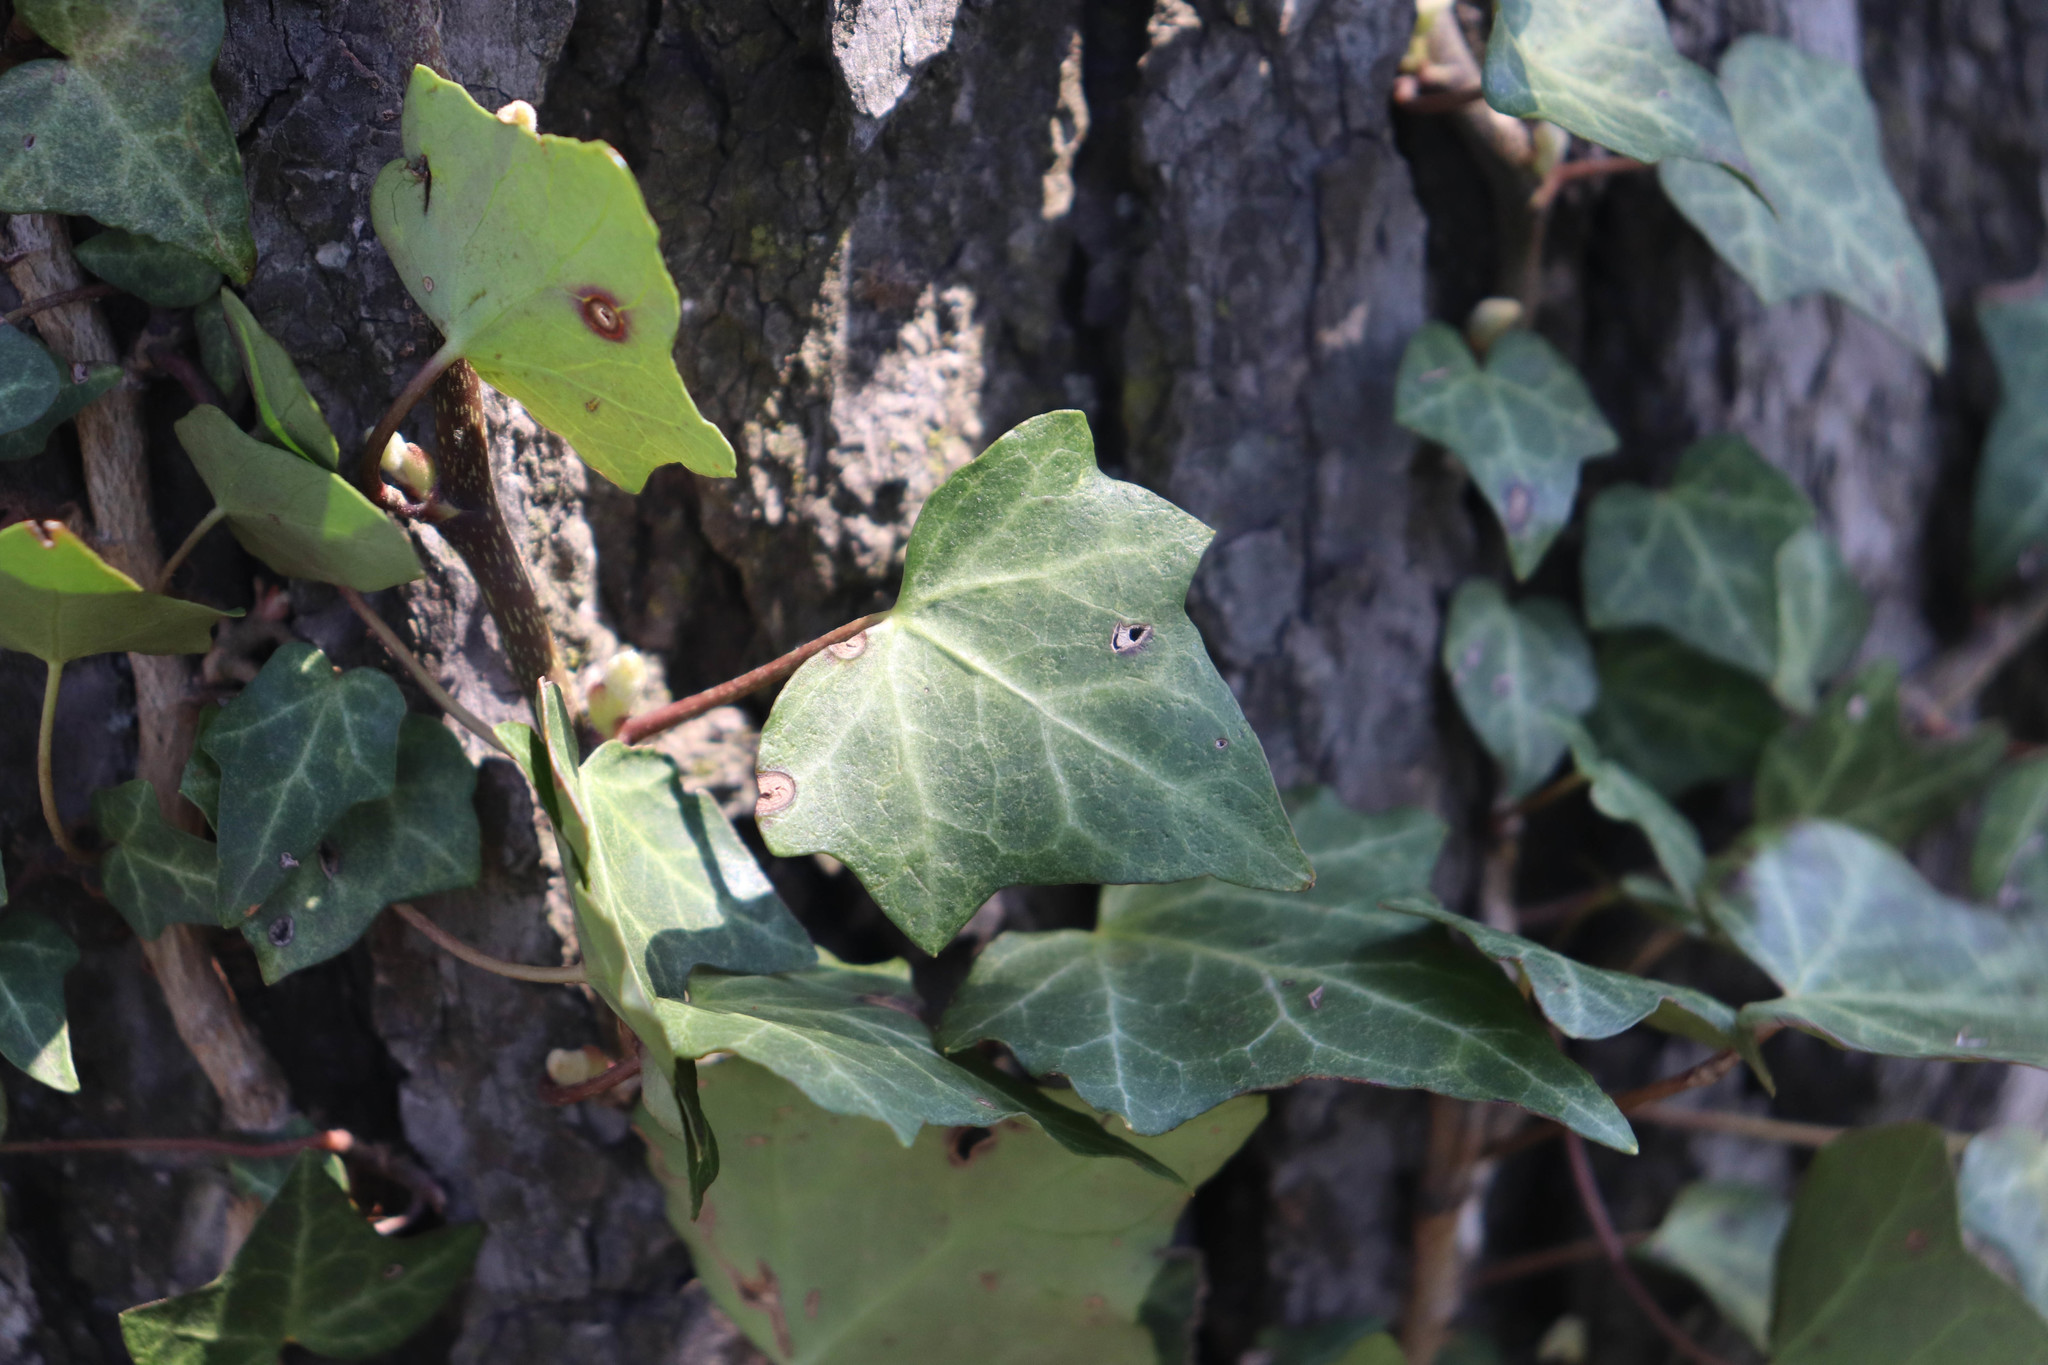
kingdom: Plantae
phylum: Tracheophyta
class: Magnoliopsida
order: Apiales
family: Araliaceae
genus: Hedera
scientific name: Hedera helix
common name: Ivy
